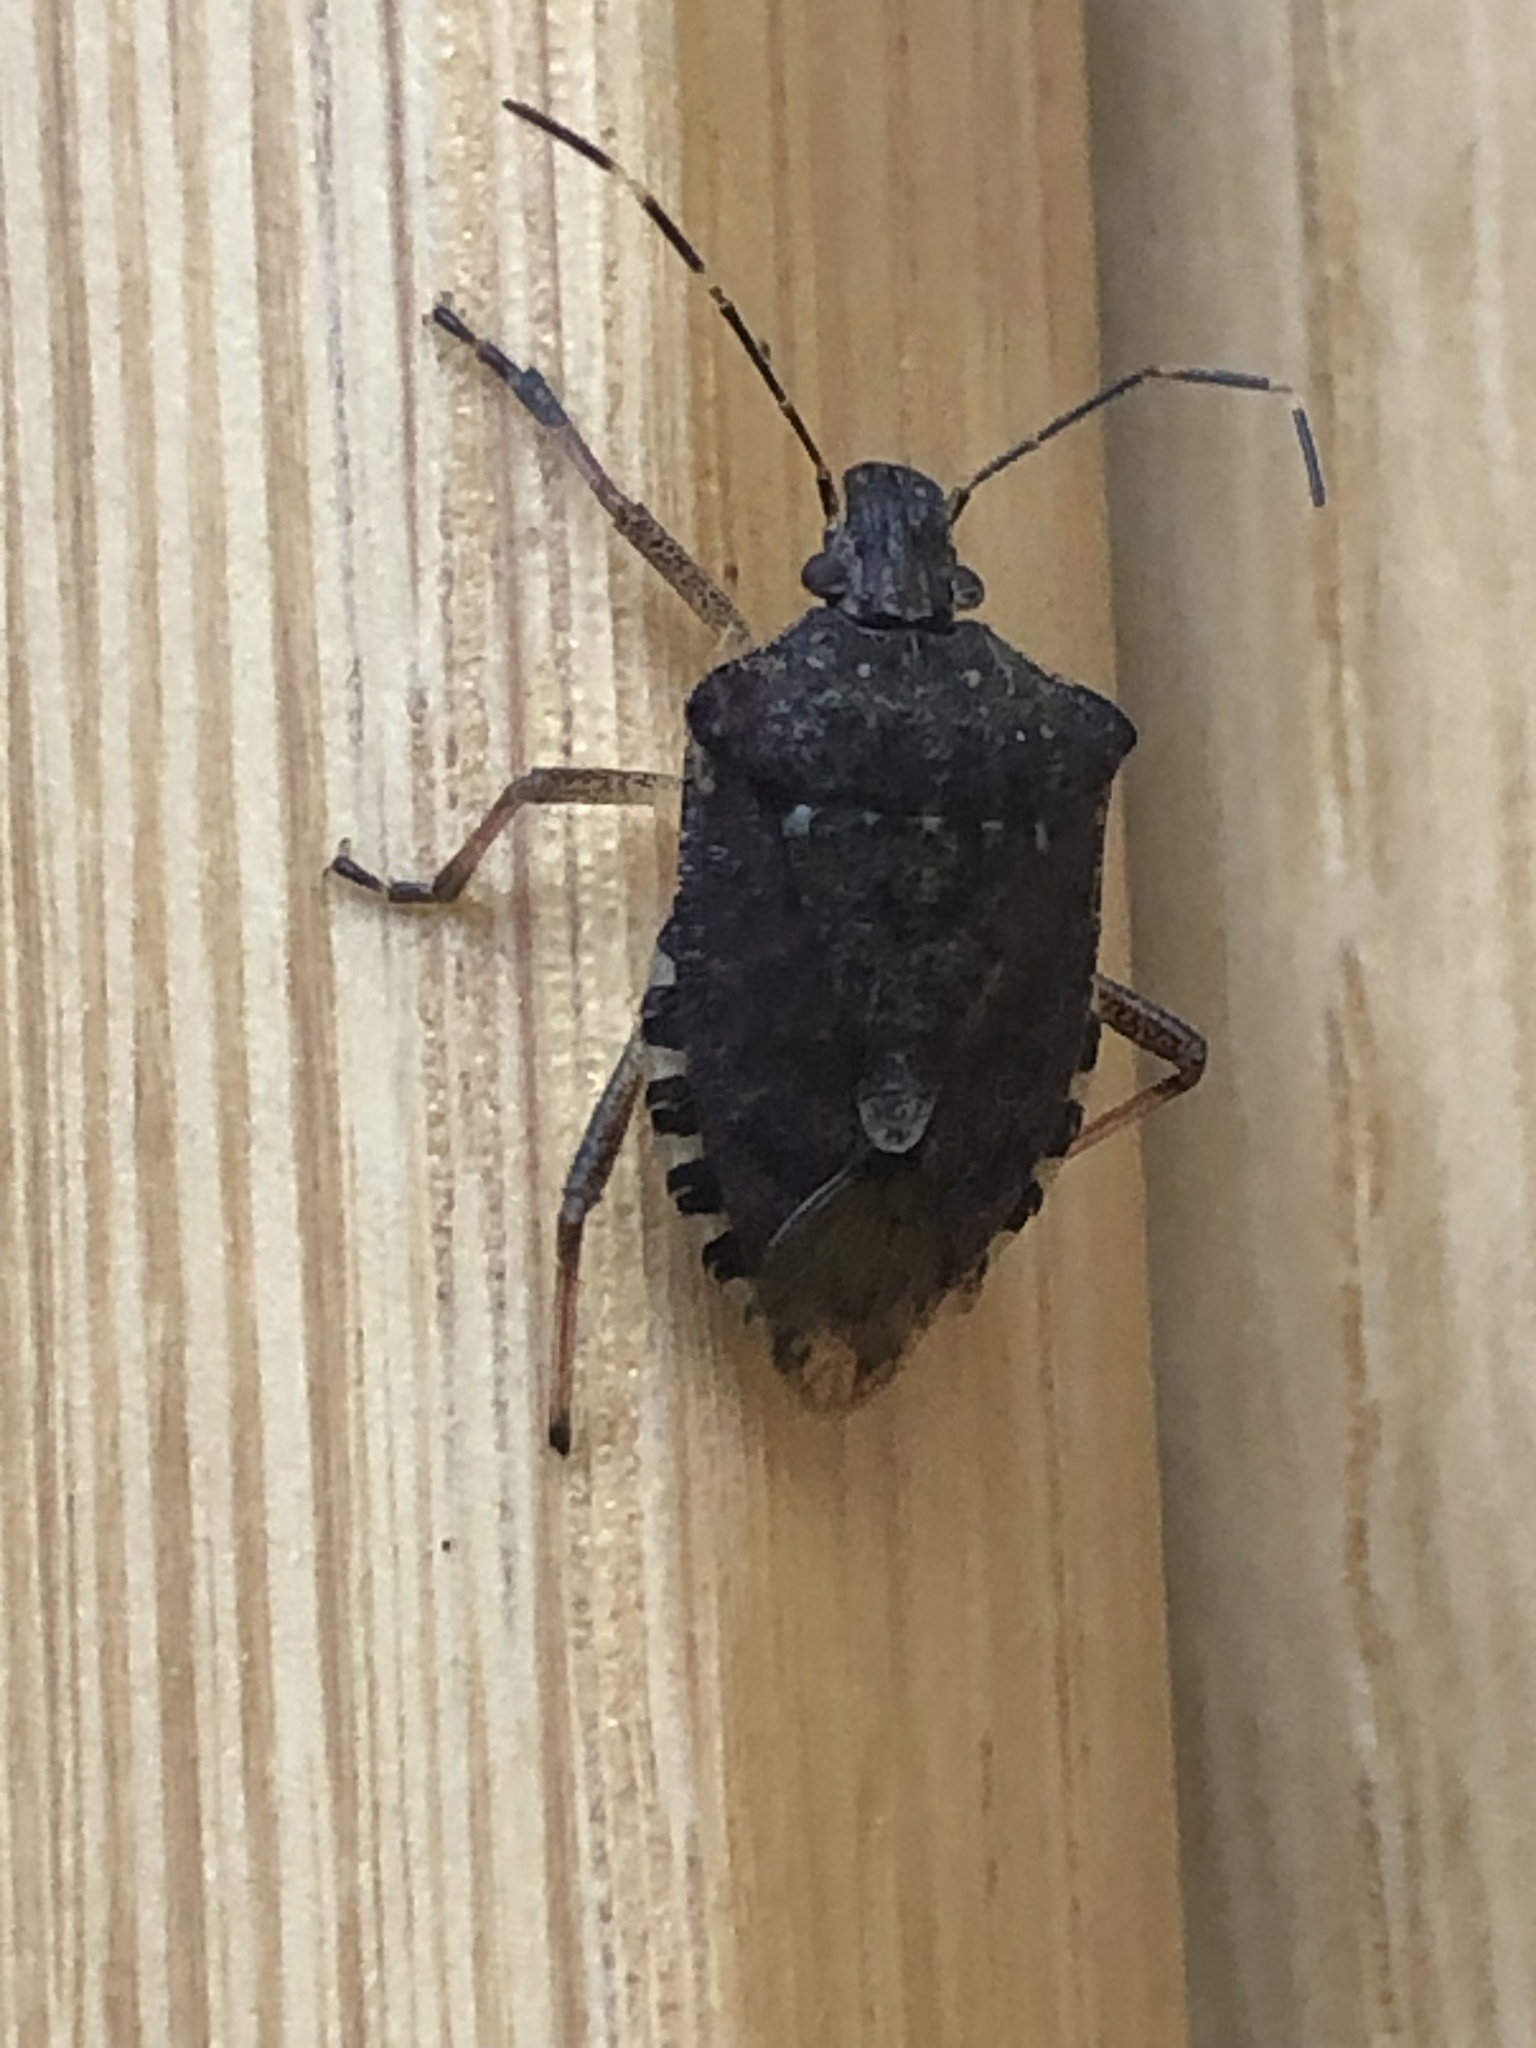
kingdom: Animalia
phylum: Arthropoda
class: Insecta
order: Hemiptera
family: Pentatomidae
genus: Halyomorpha
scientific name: Halyomorpha halys
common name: Brown marmorated stink bug
